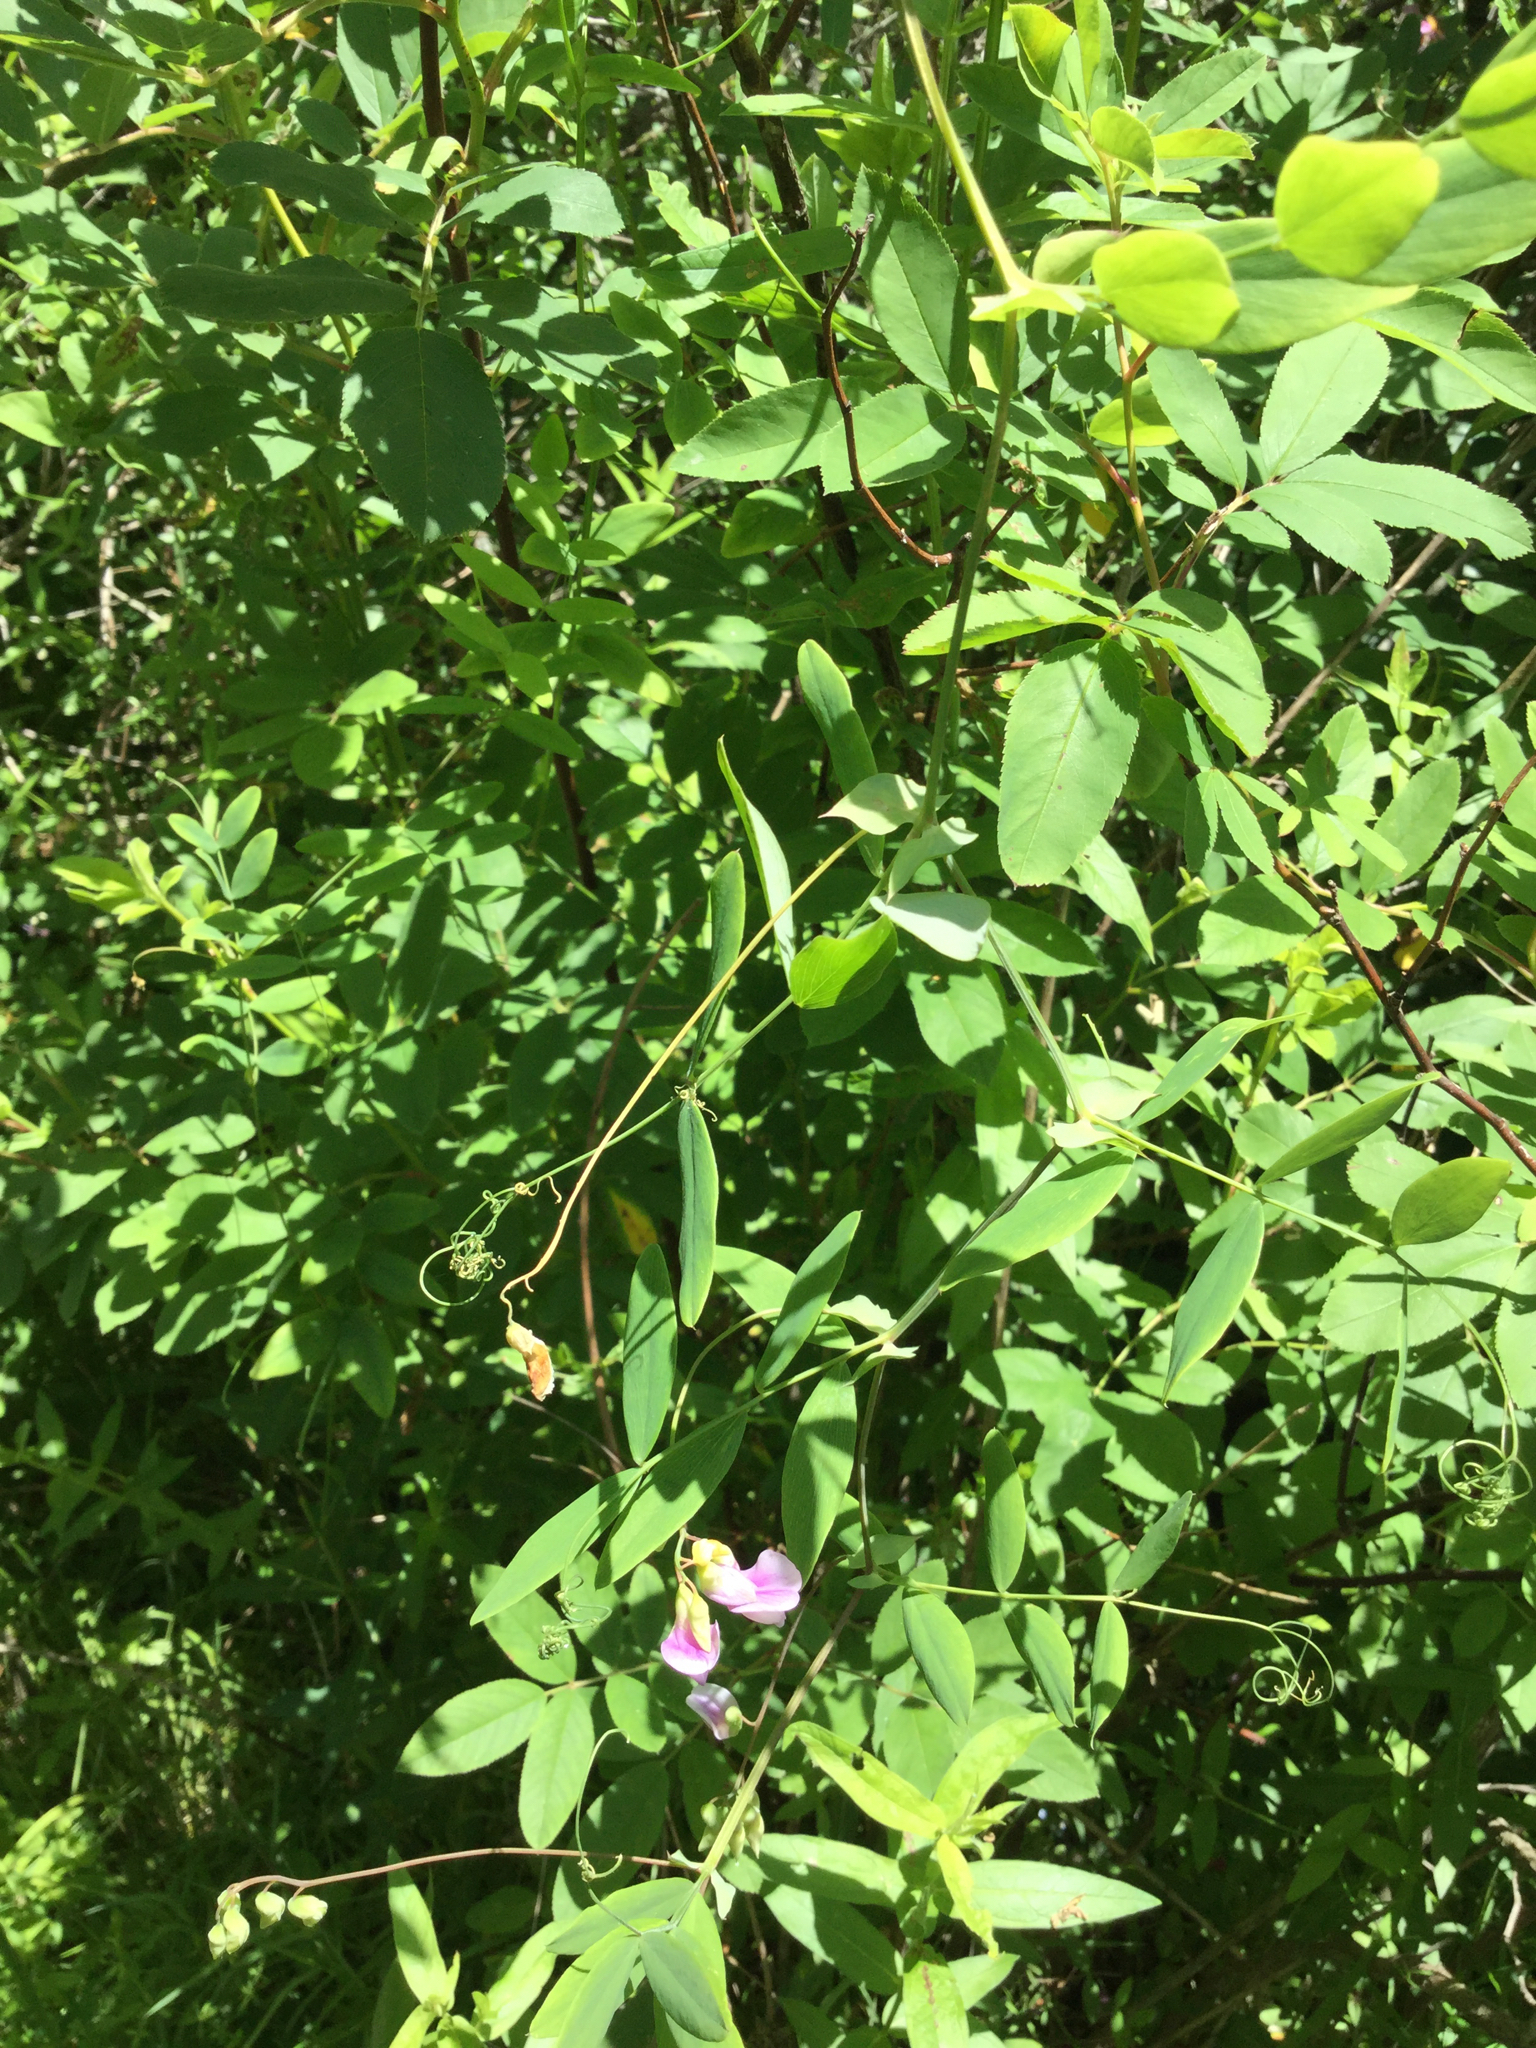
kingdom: Plantae
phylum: Tracheophyta
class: Magnoliopsida
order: Fabales
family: Fabaceae
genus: Lathyrus
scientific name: Lathyrus palustris
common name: Marsh pea
